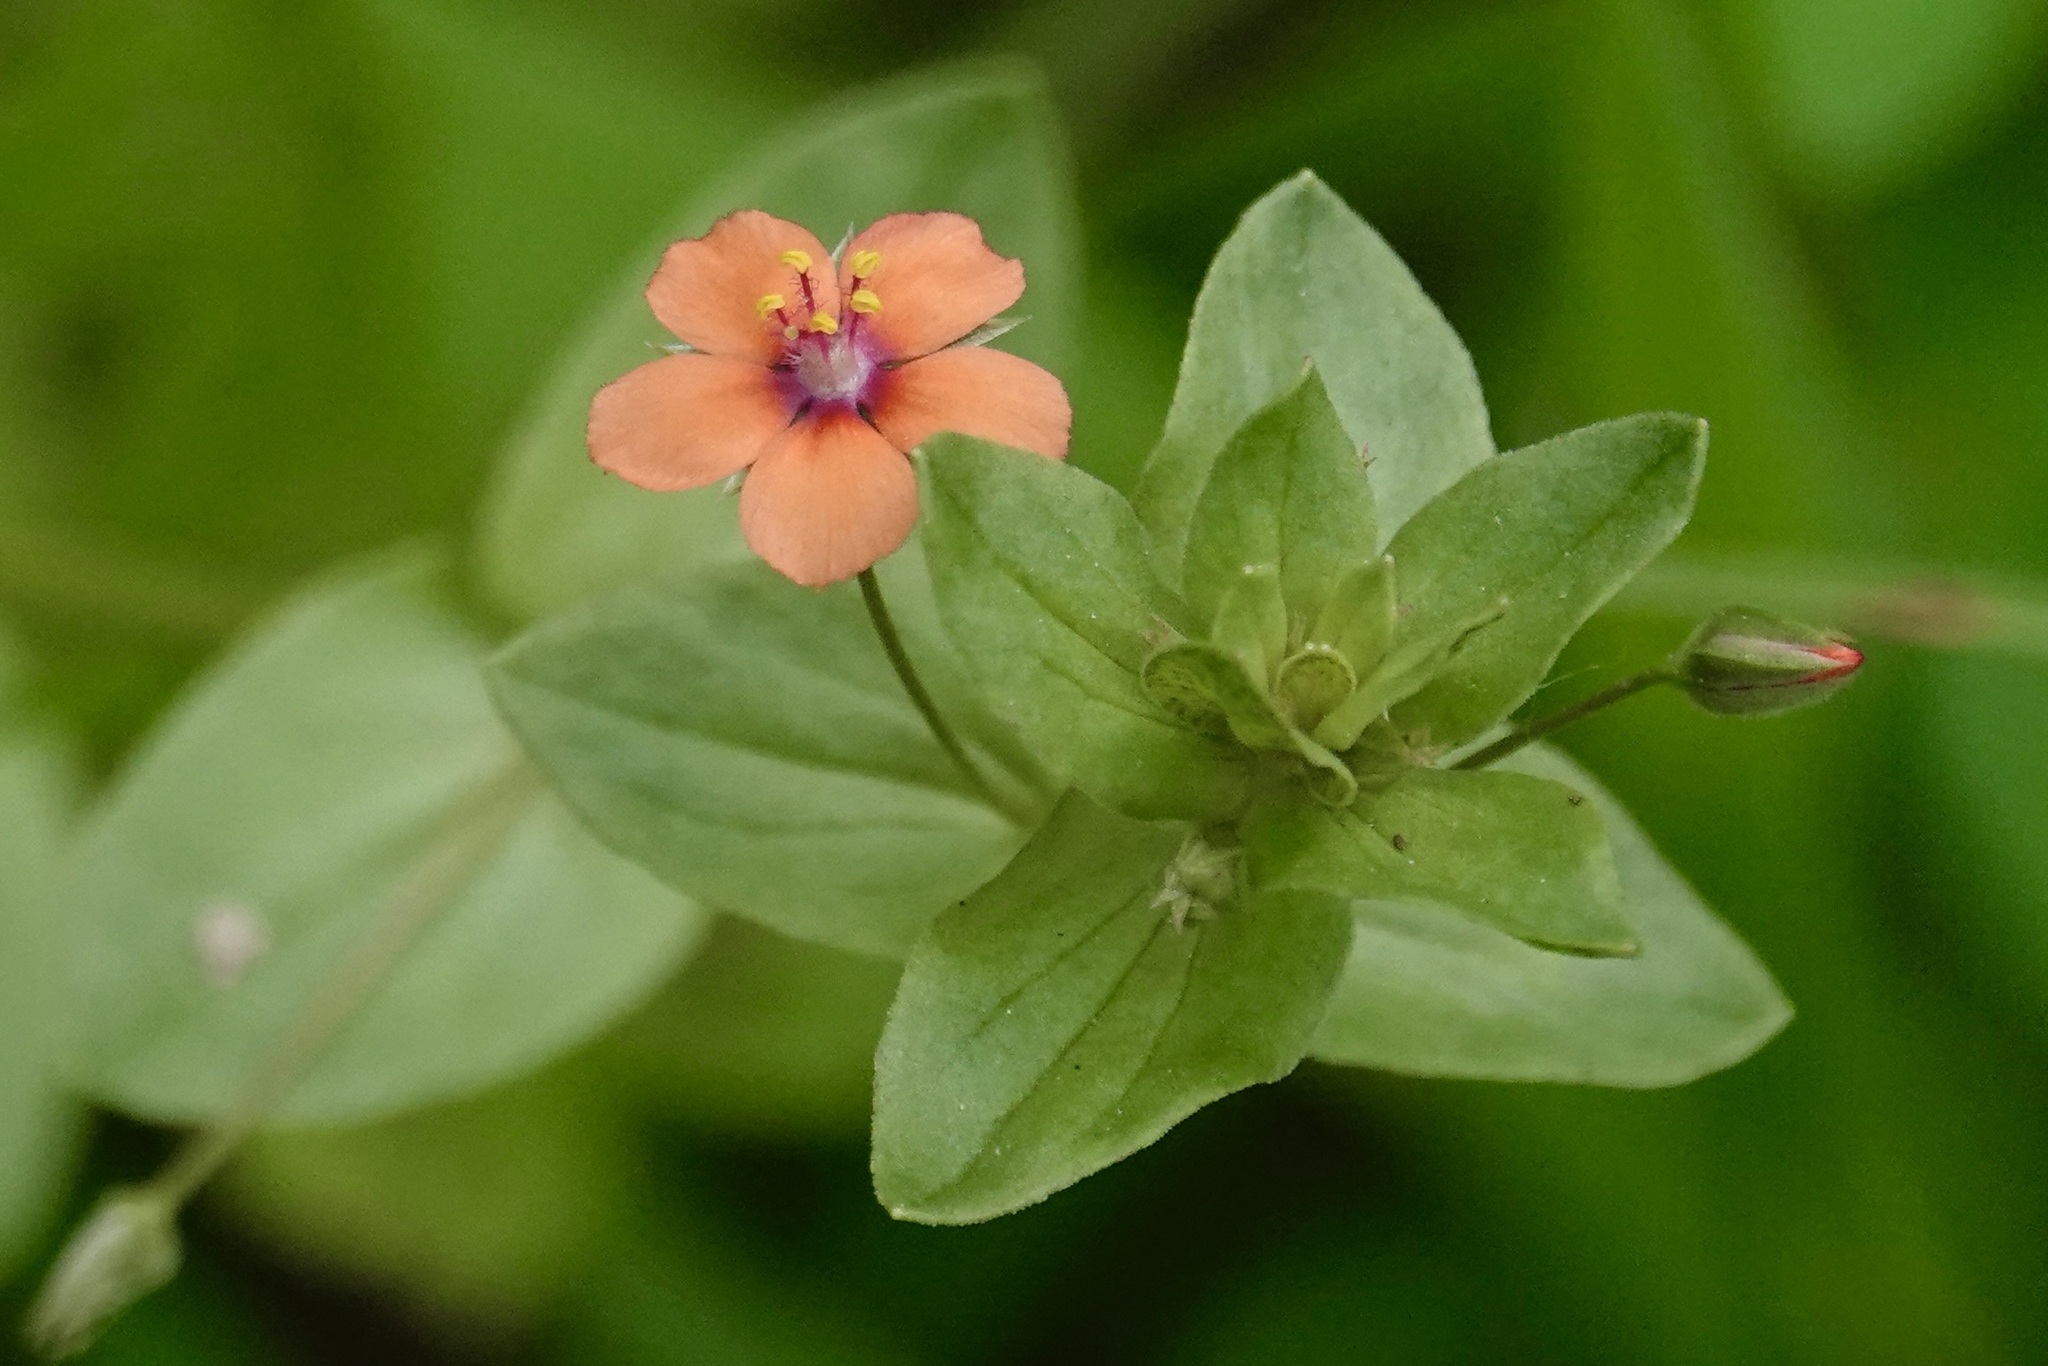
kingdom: Plantae
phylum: Tracheophyta
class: Magnoliopsida
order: Ericales
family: Primulaceae
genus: Lysimachia
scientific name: Lysimachia arvensis
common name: Scarlet pimpernel
